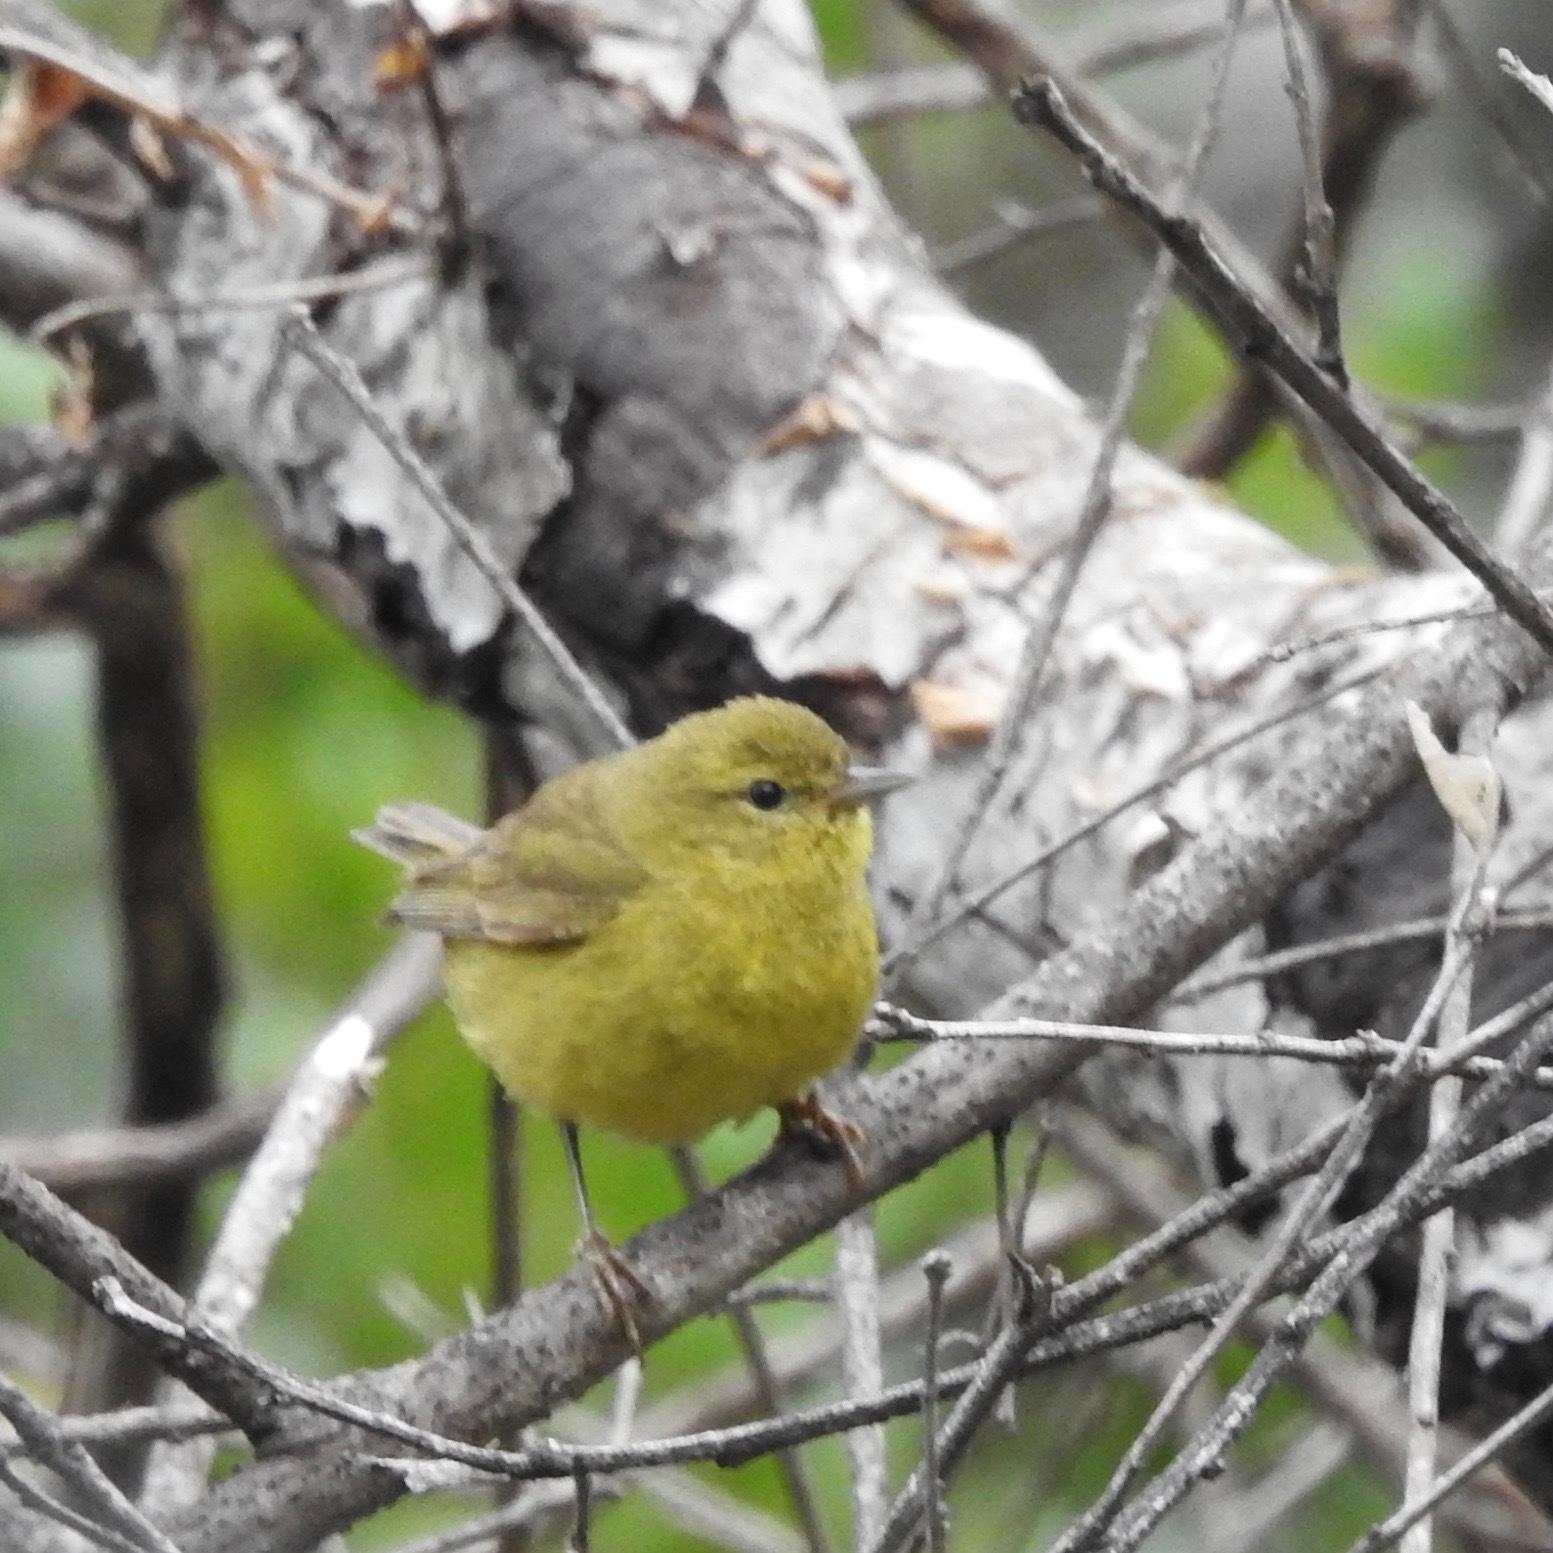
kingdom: Animalia
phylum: Chordata
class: Aves
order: Passeriformes
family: Parulidae
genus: Leiothlypis
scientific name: Leiothlypis celata
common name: Orange-crowned warbler
